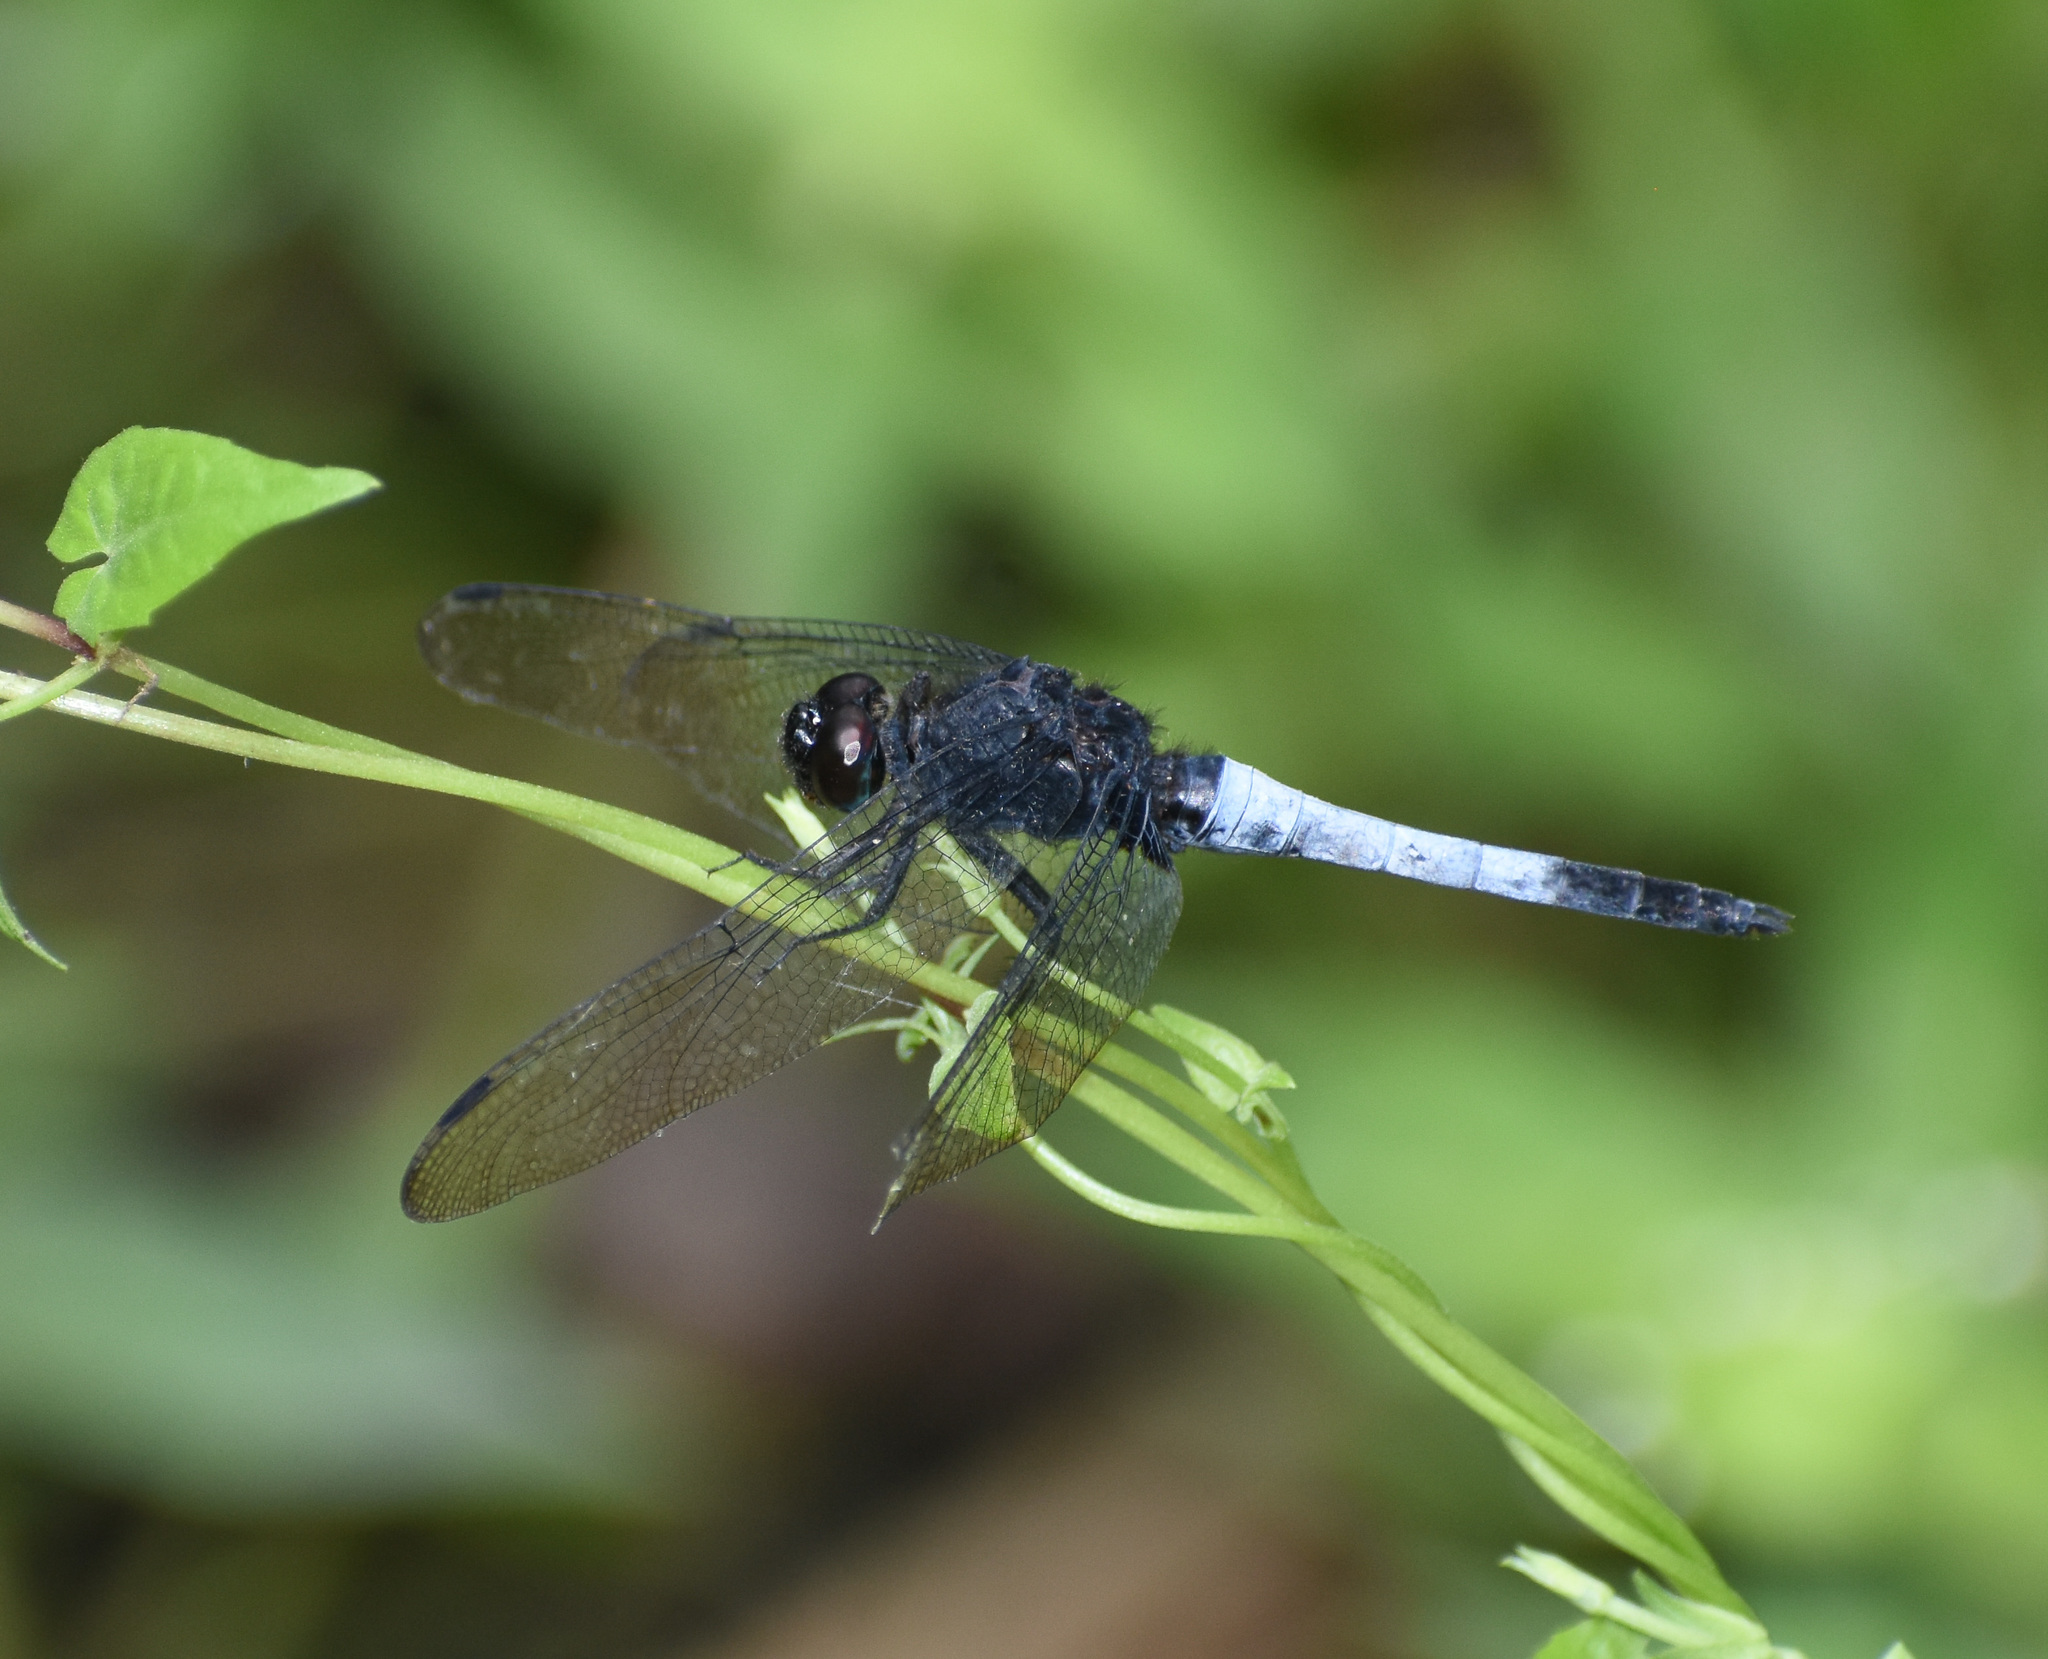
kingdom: Animalia
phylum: Arthropoda
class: Insecta
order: Odonata
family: Libellulidae
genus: Orthetrum
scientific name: Orthetrum triangulare
